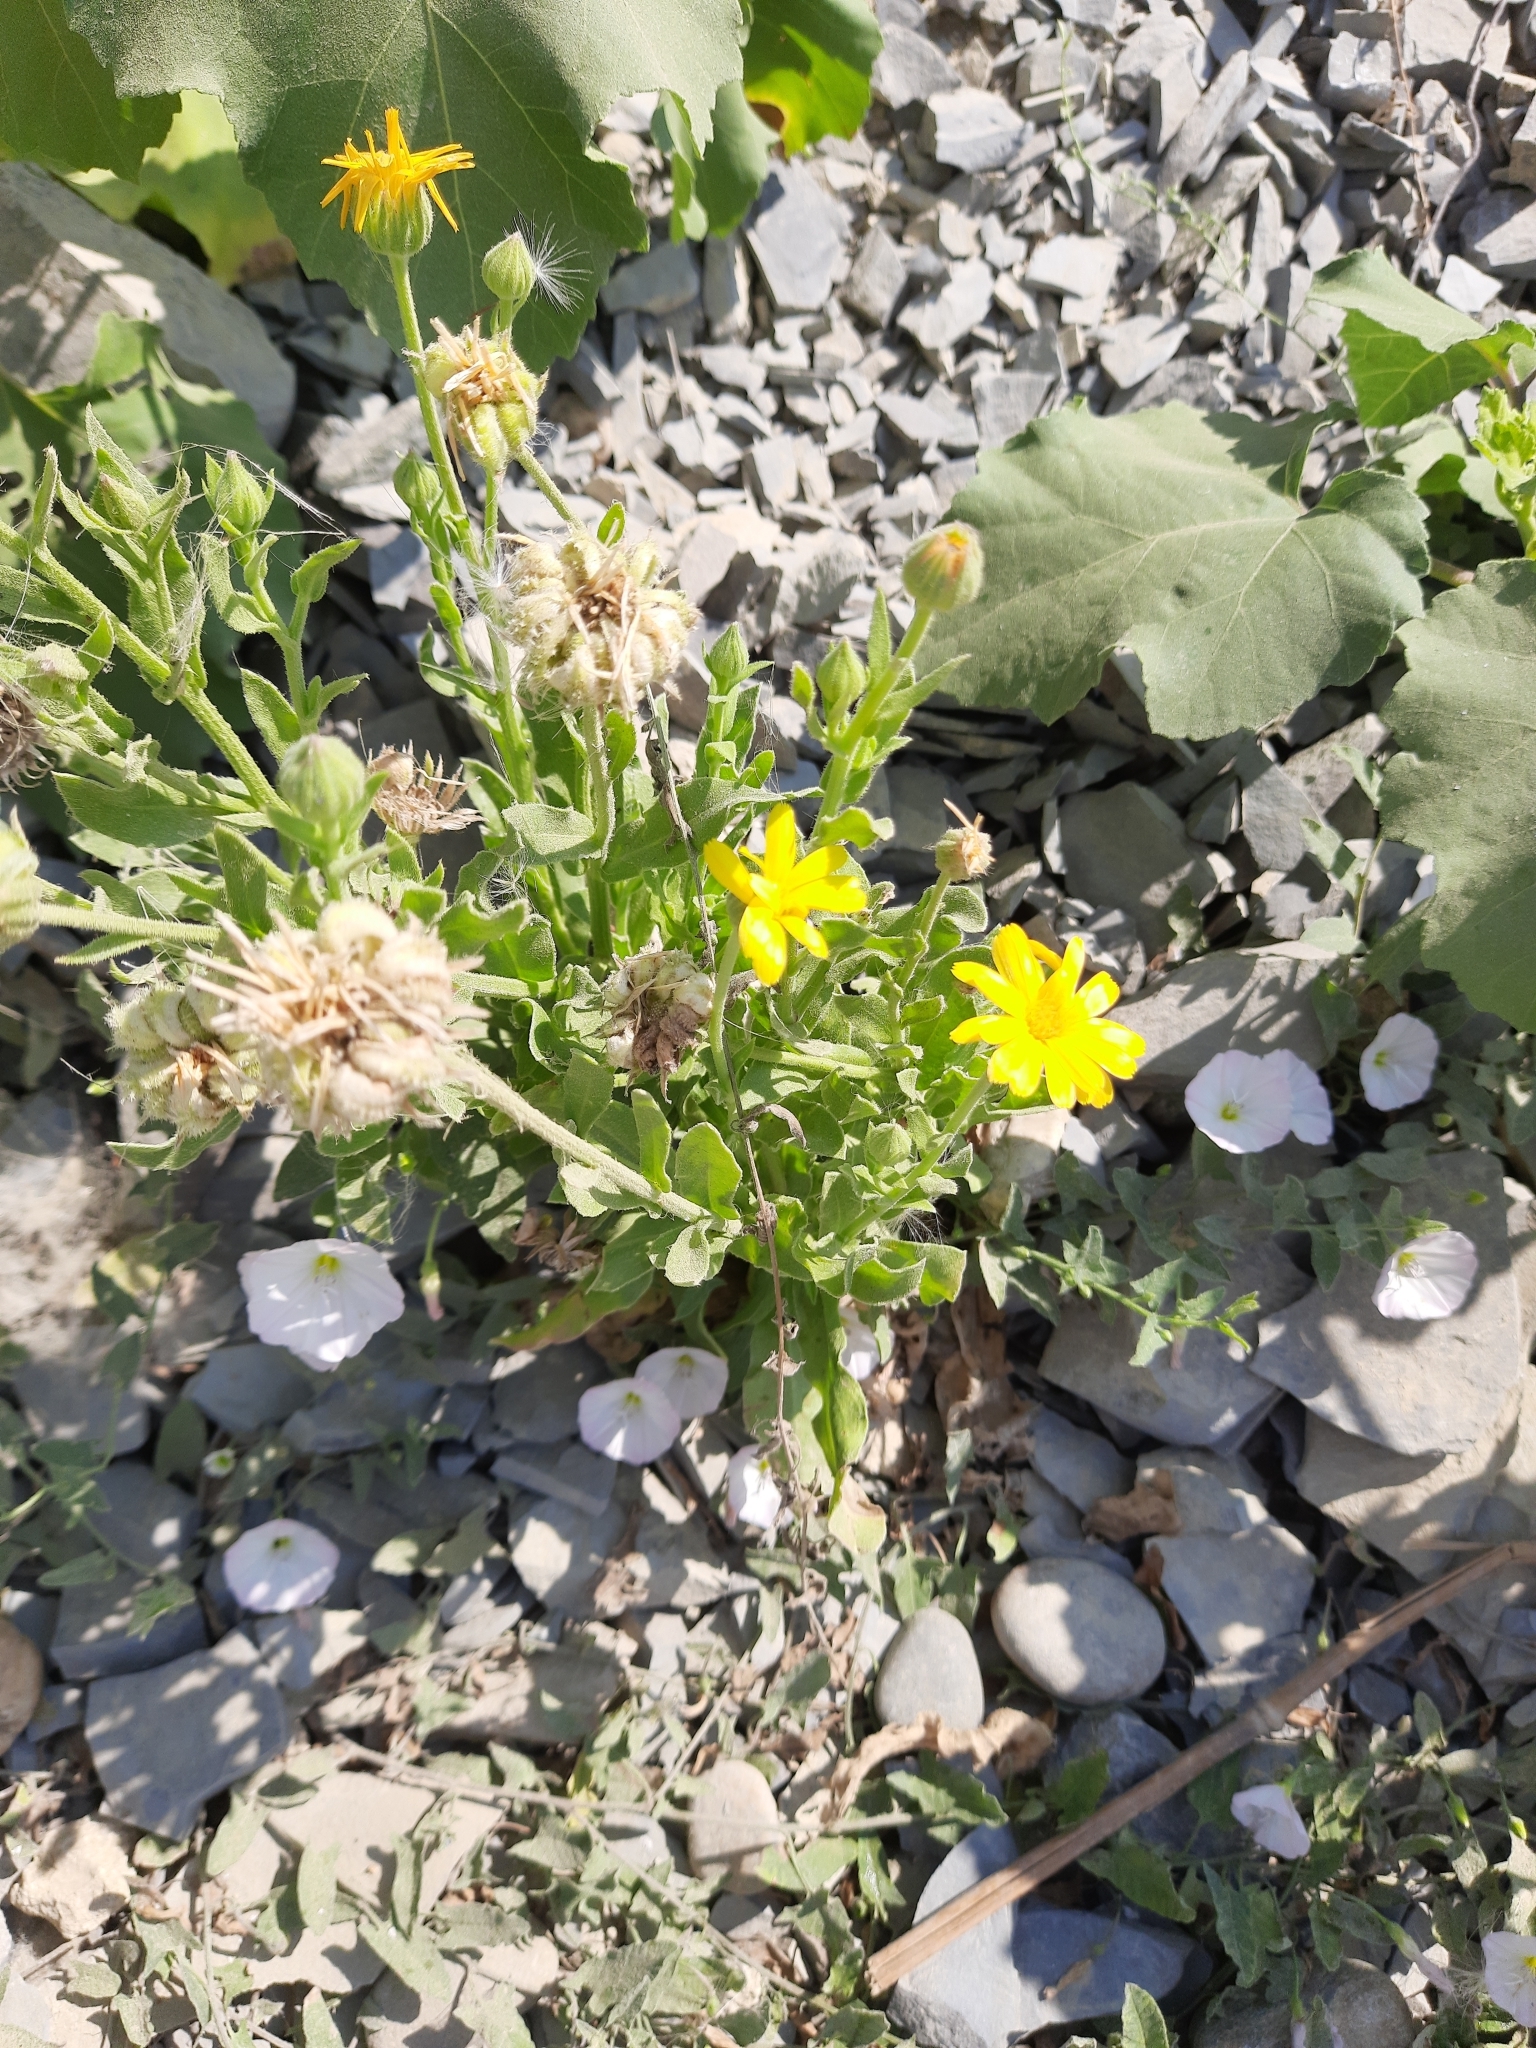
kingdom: Plantae
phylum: Tracheophyta
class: Magnoliopsida
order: Asterales
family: Asteraceae
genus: Calendula
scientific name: Calendula officinalis
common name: Pot marigold
